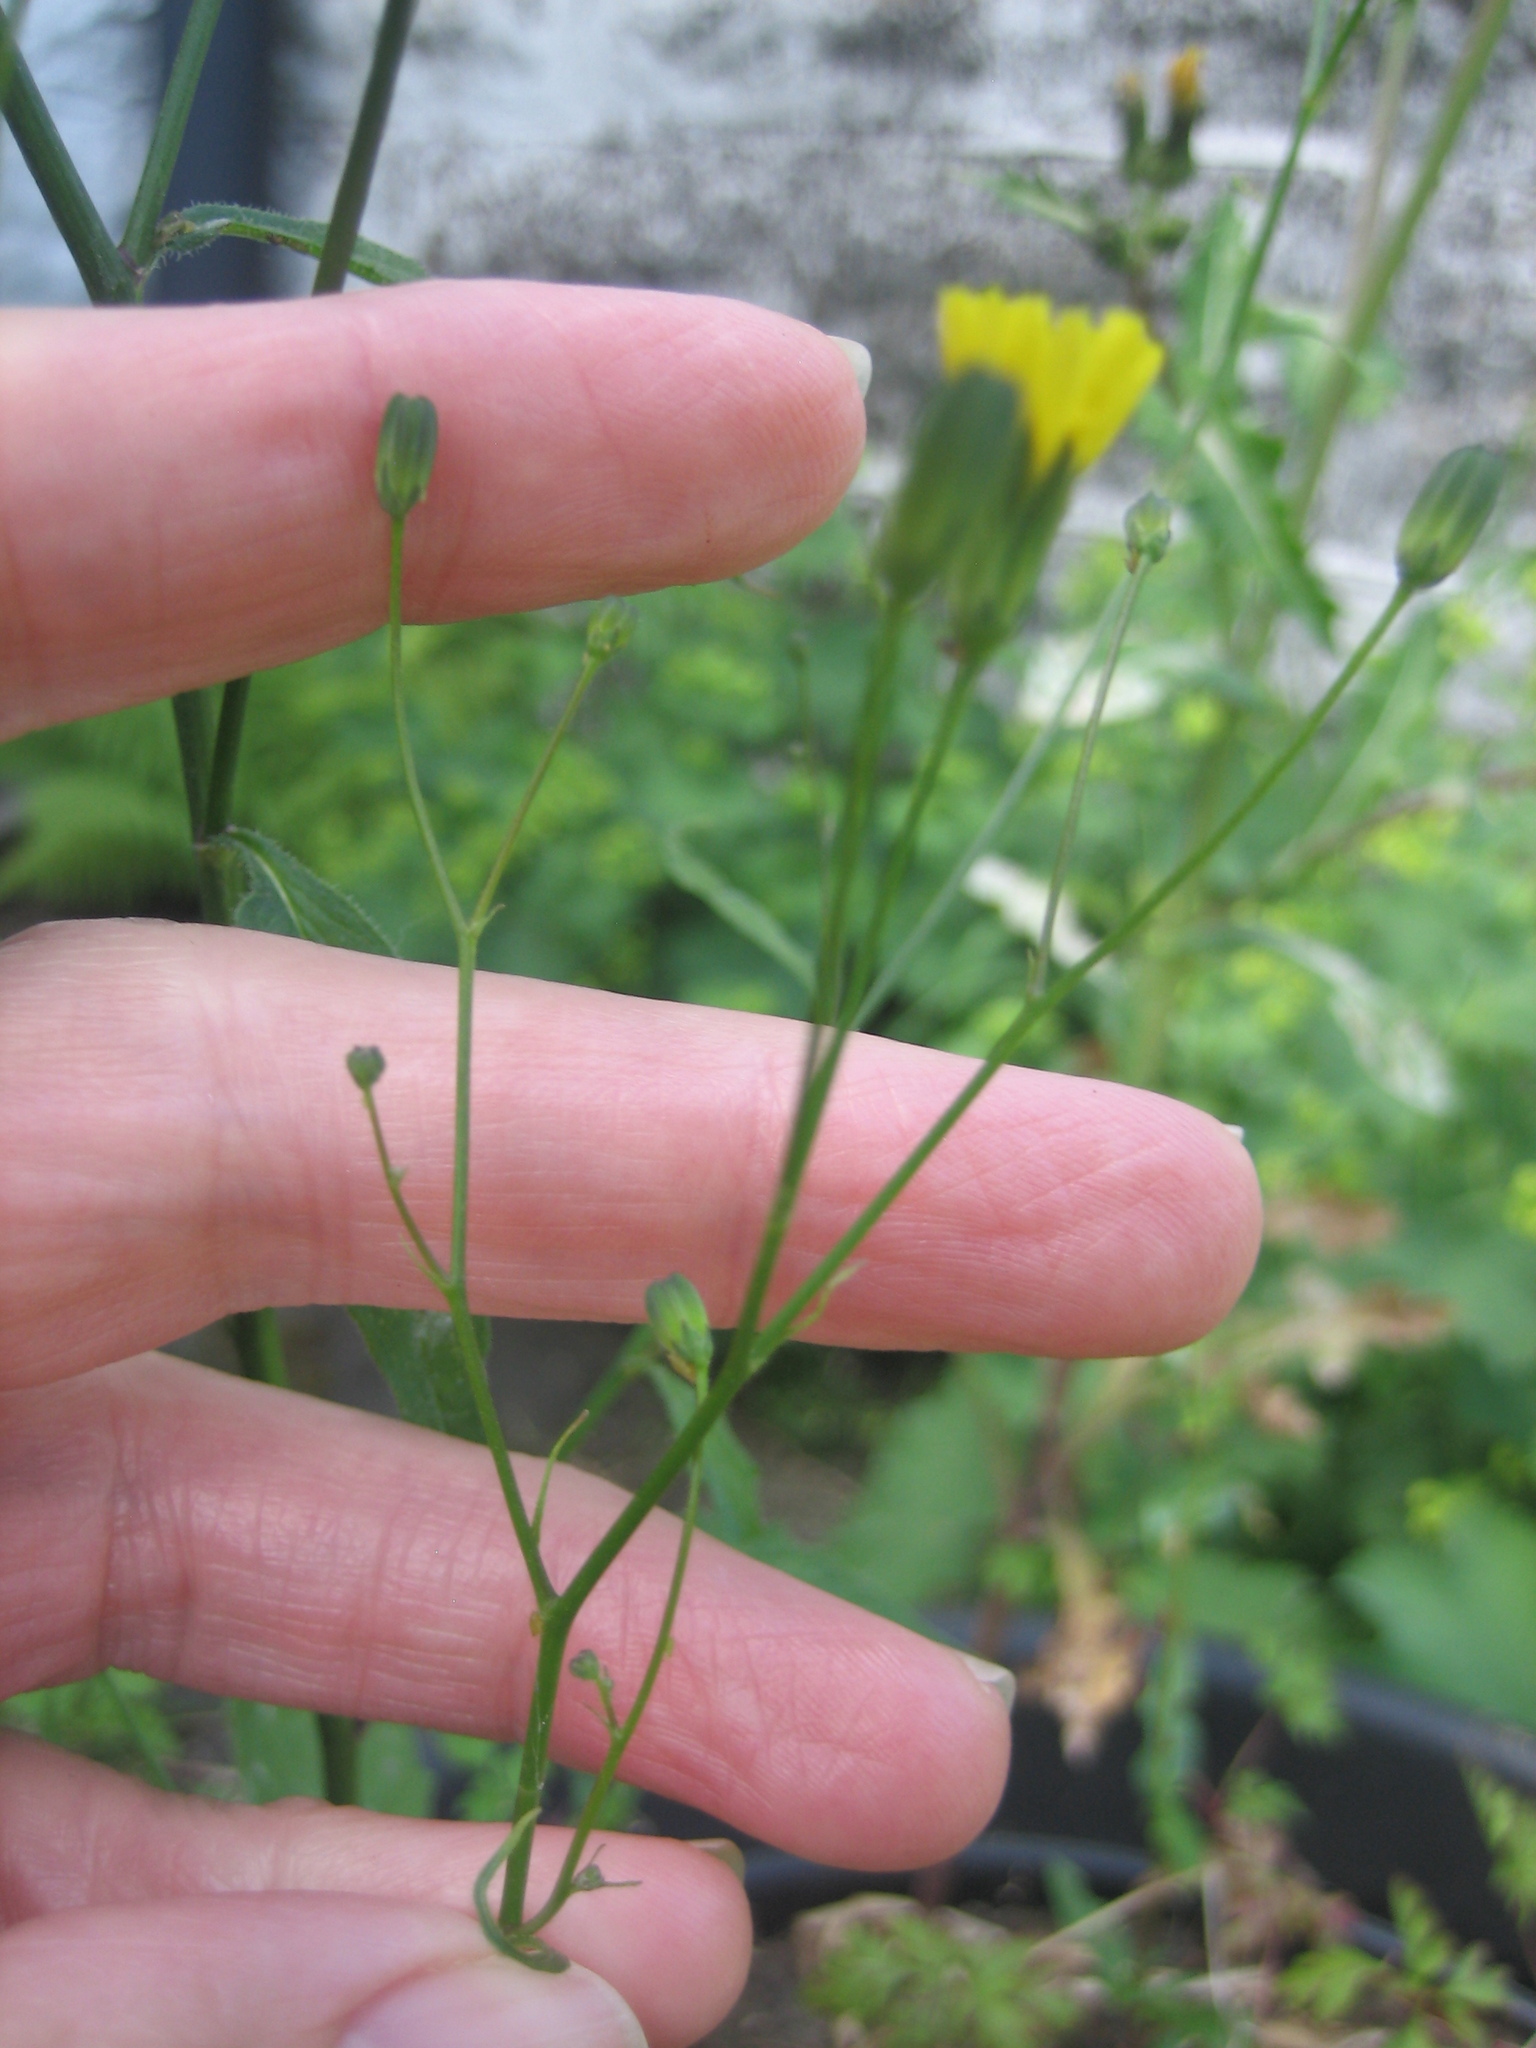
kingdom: Plantae
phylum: Tracheophyta
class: Magnoliopsida
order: Asterales
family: Asteraceae
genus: Lapsana
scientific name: Lapsana communis
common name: Nipplewort
